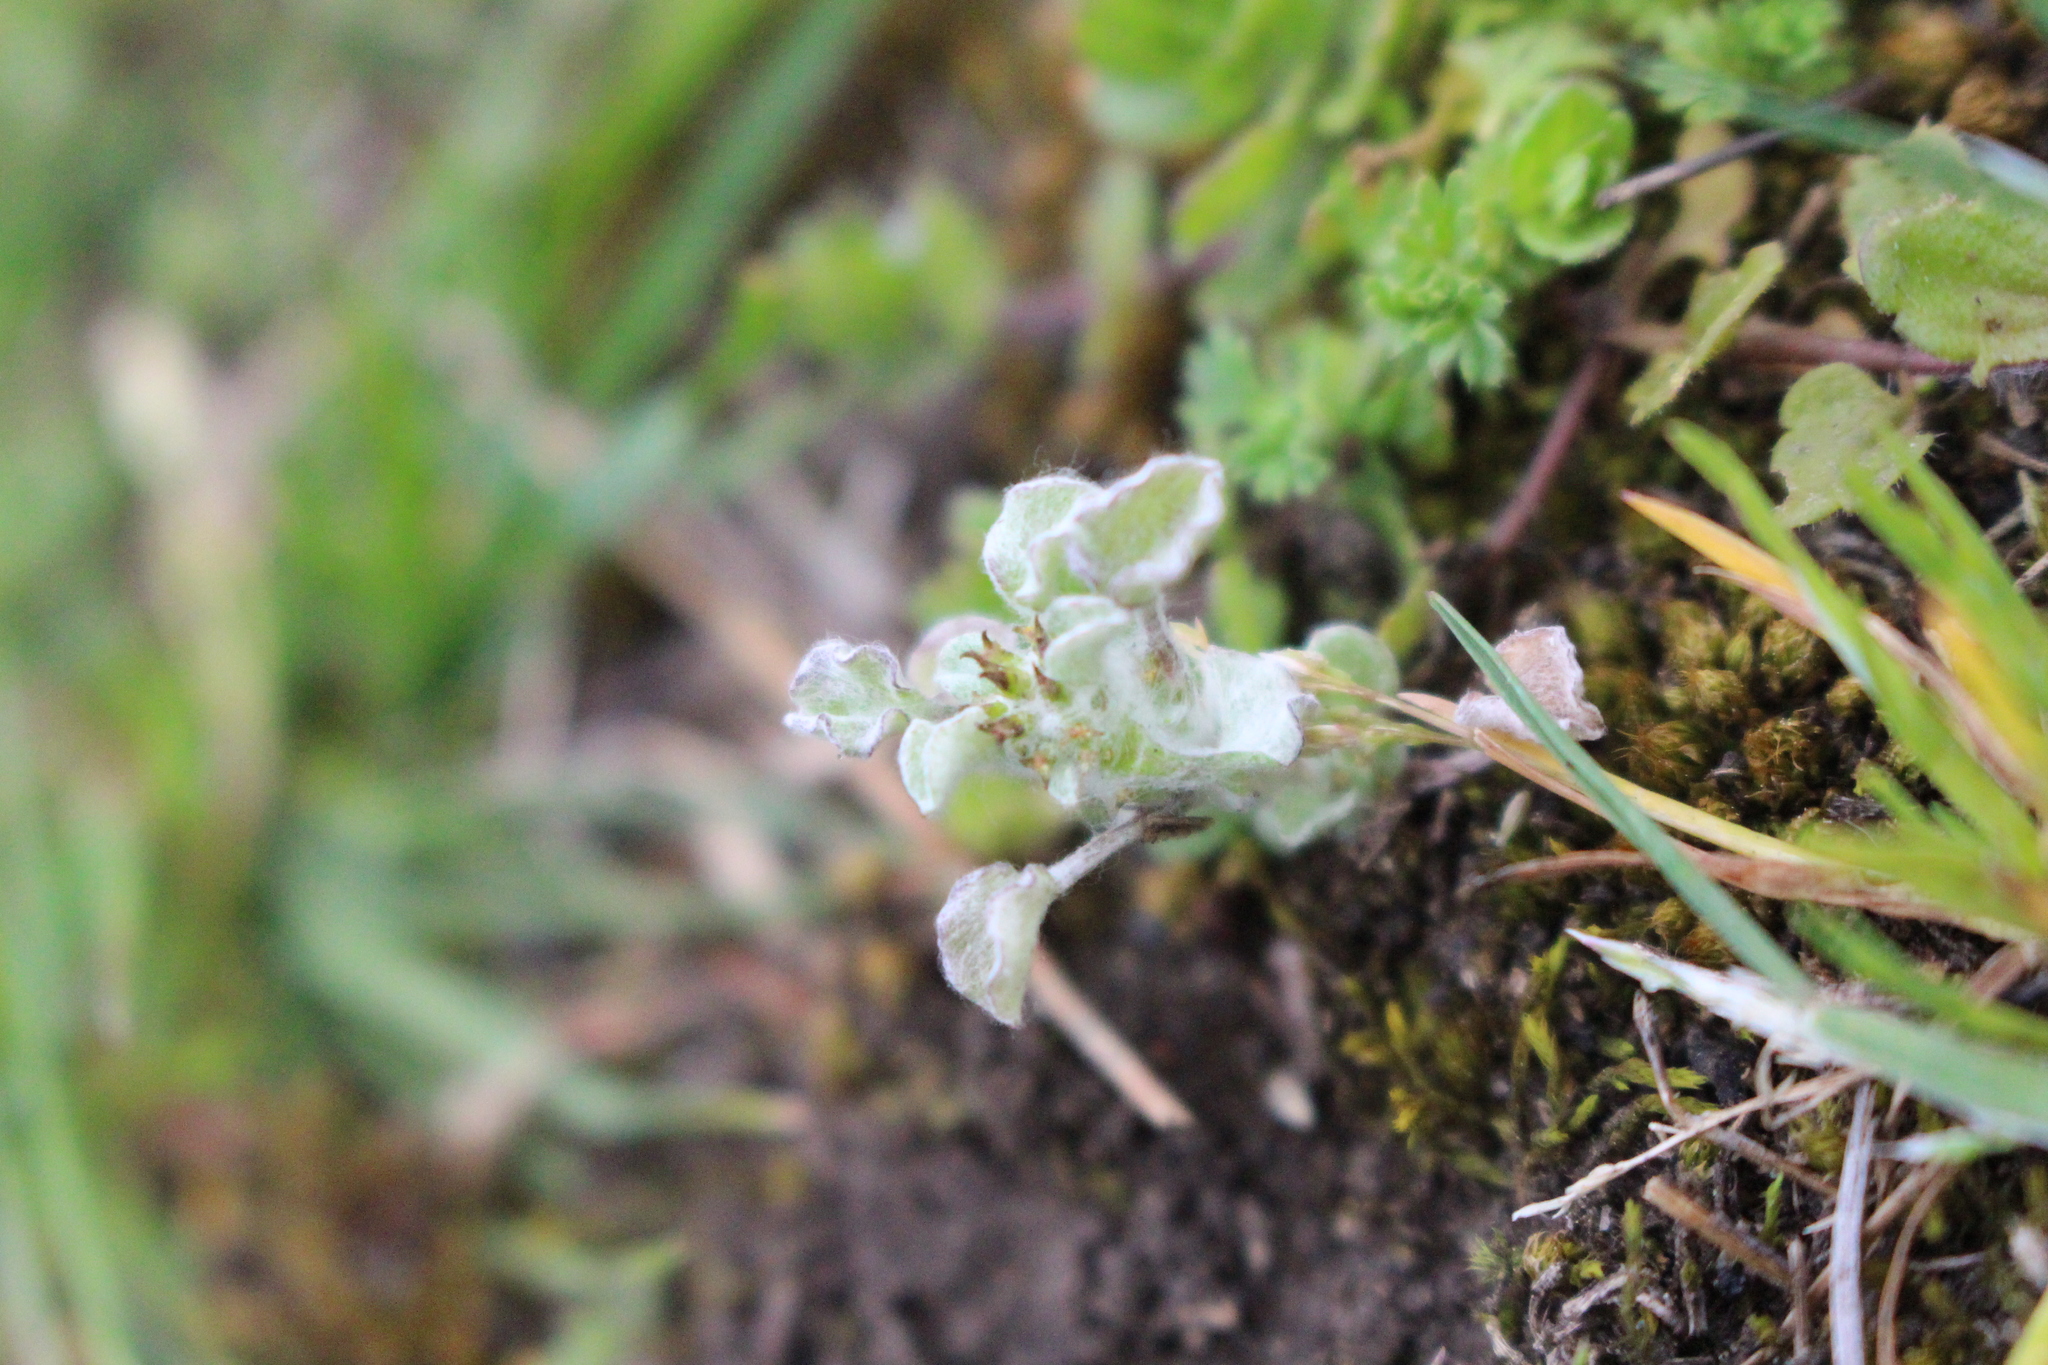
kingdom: Plantae
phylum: Tracheophyta
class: Magnoliopsida
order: Asterales
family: Asteraceae
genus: Stuartina
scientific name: Stuartina muelleri
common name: Spoon-leaved cudweed
